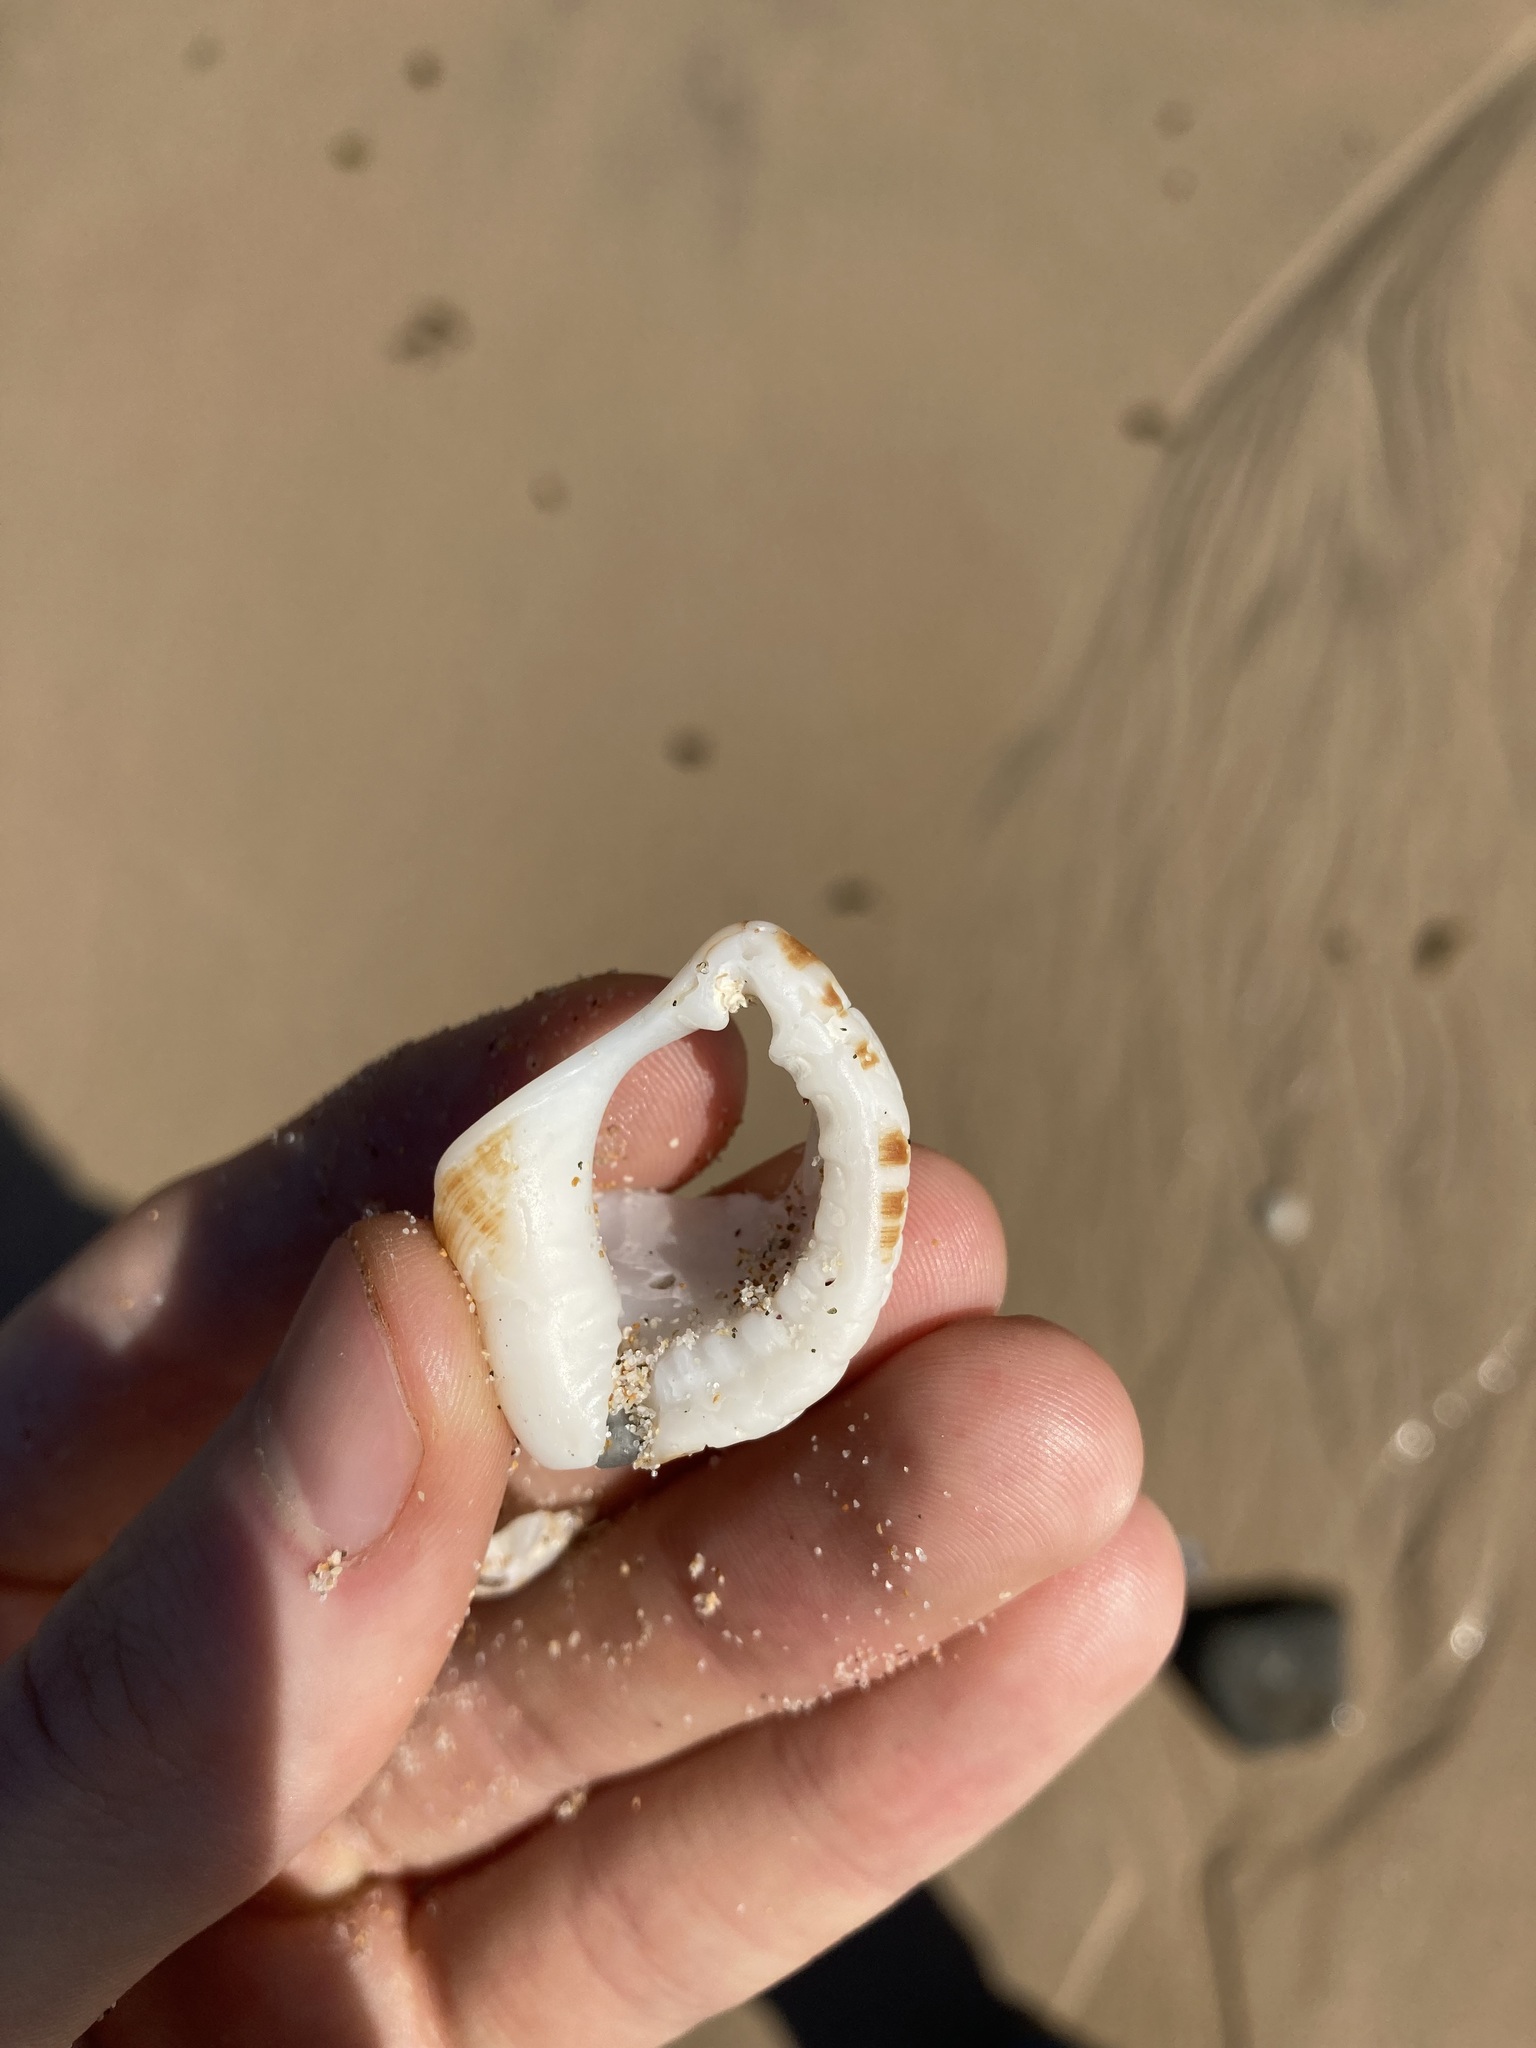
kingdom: Animalia
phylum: Mollusca
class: Gastropoda
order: Littorinimorpha
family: Ranellidae
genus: Ranella
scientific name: Ranella australasia
